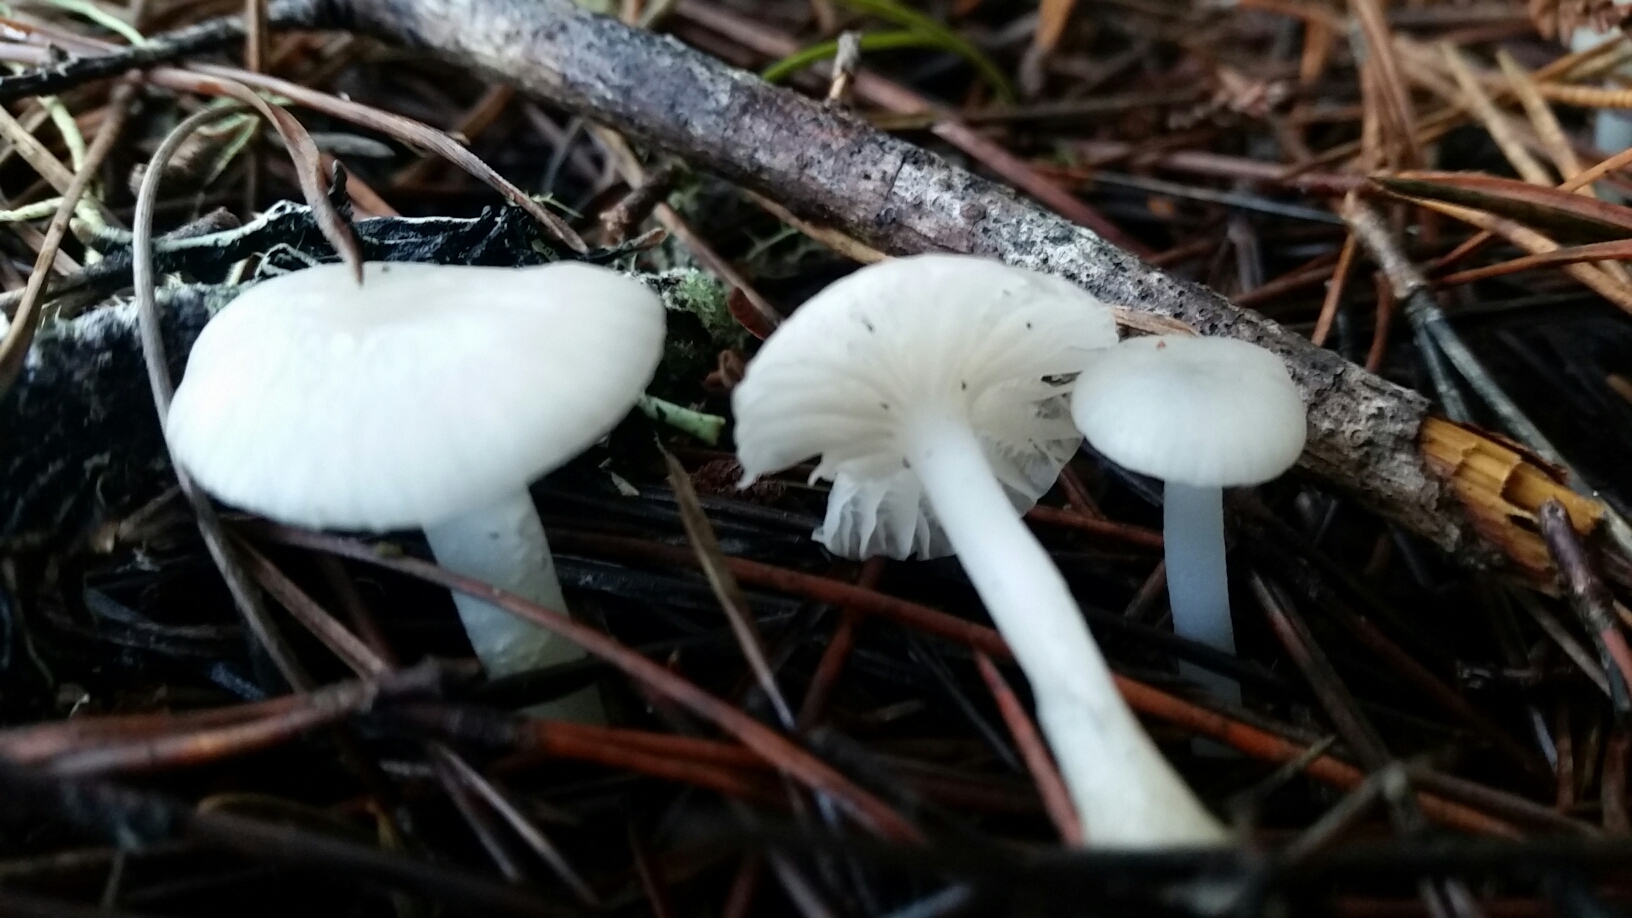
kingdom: Fungi
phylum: Basidiomycota
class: Agaricomycetes
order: Agaricales
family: Marasmiaceae
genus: Marasmius
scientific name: Marasmius calhouniae
